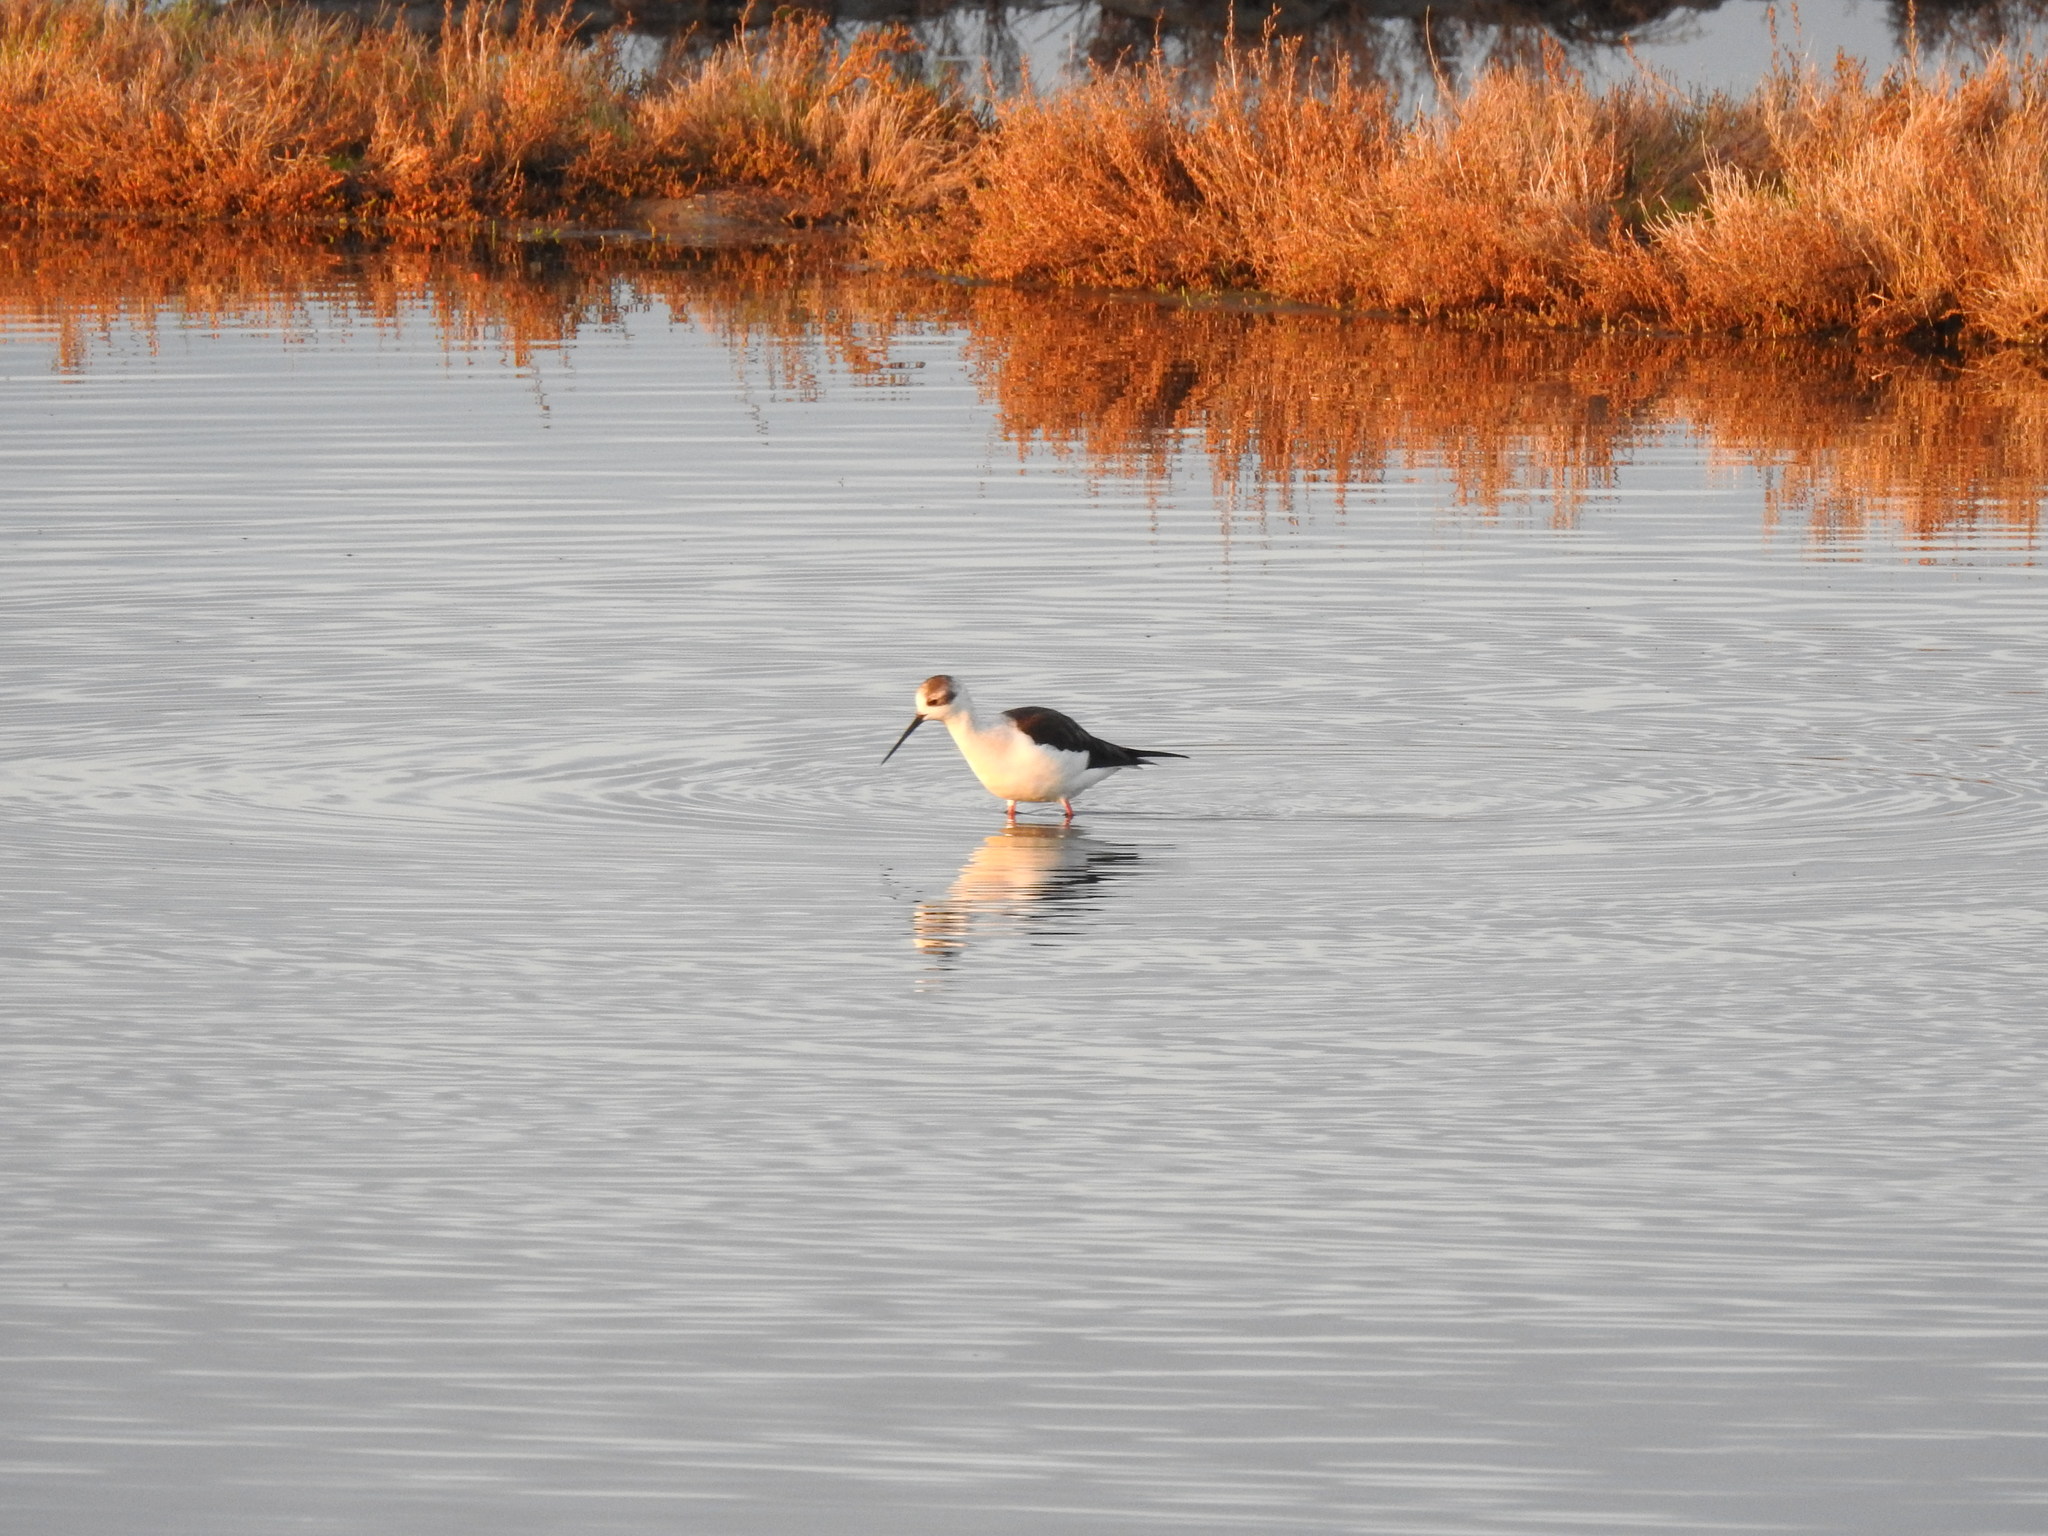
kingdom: Animalia
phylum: Chordata
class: Aves
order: Charadriiformes
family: Recurvirostridae
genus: Himantopus
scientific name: Himantopus himantopus
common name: Black-winged stilt
